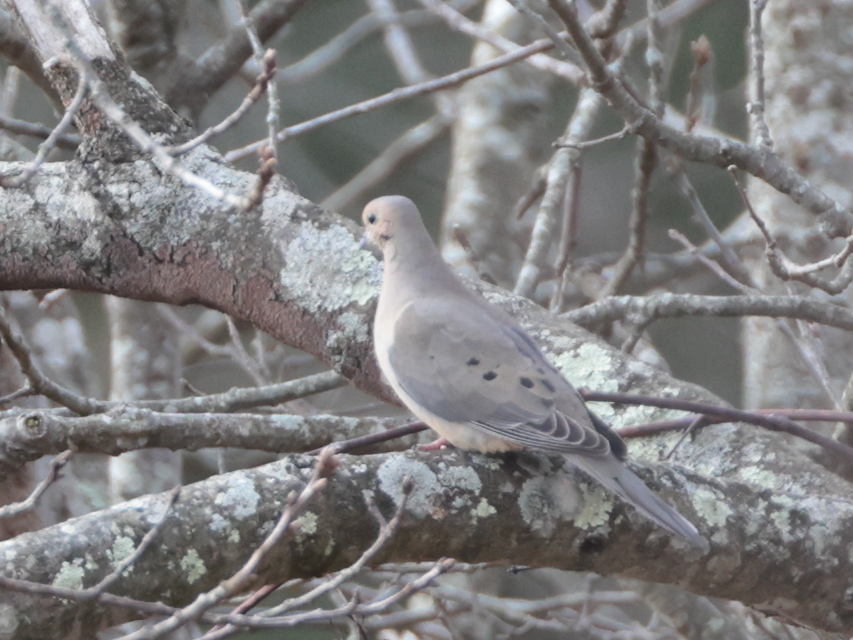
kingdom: Animalia
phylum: Chordata
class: Aves
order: Columbiformes
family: Columbidae
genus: Zenaida
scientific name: Zenaida macroura
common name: Mourning dove
